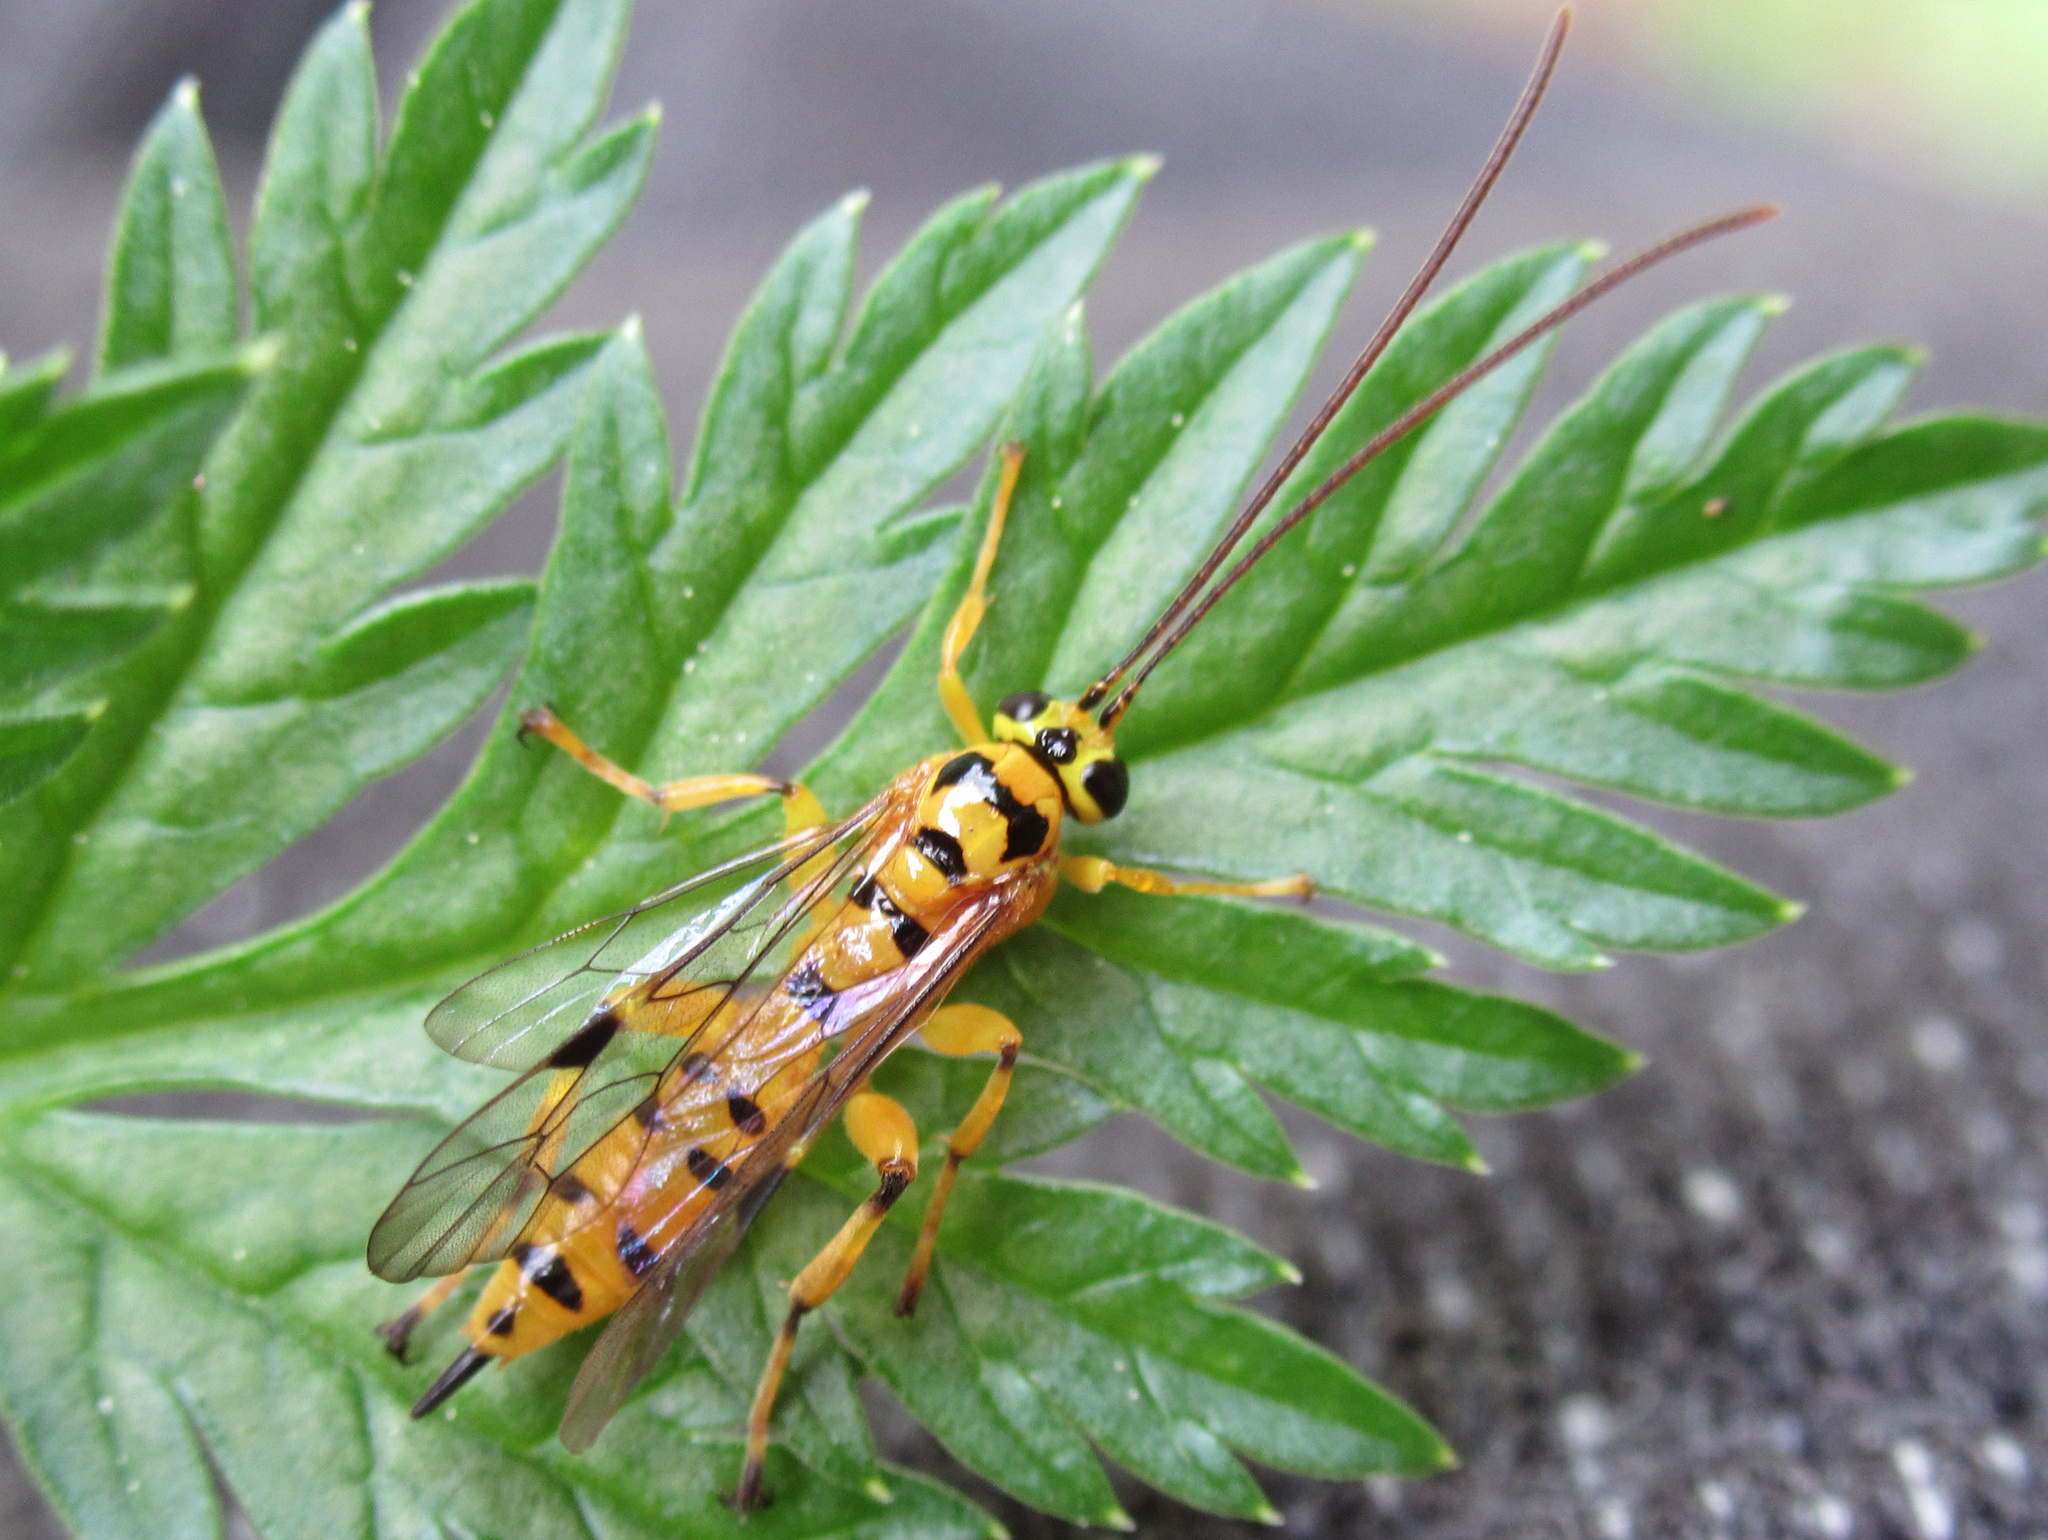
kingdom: Animalia
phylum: Arthropoda
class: Insecta
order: Hymenoptera
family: Ichneumonidae
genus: Xanthopimpla
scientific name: Xanthopimpla rhopaloceros
